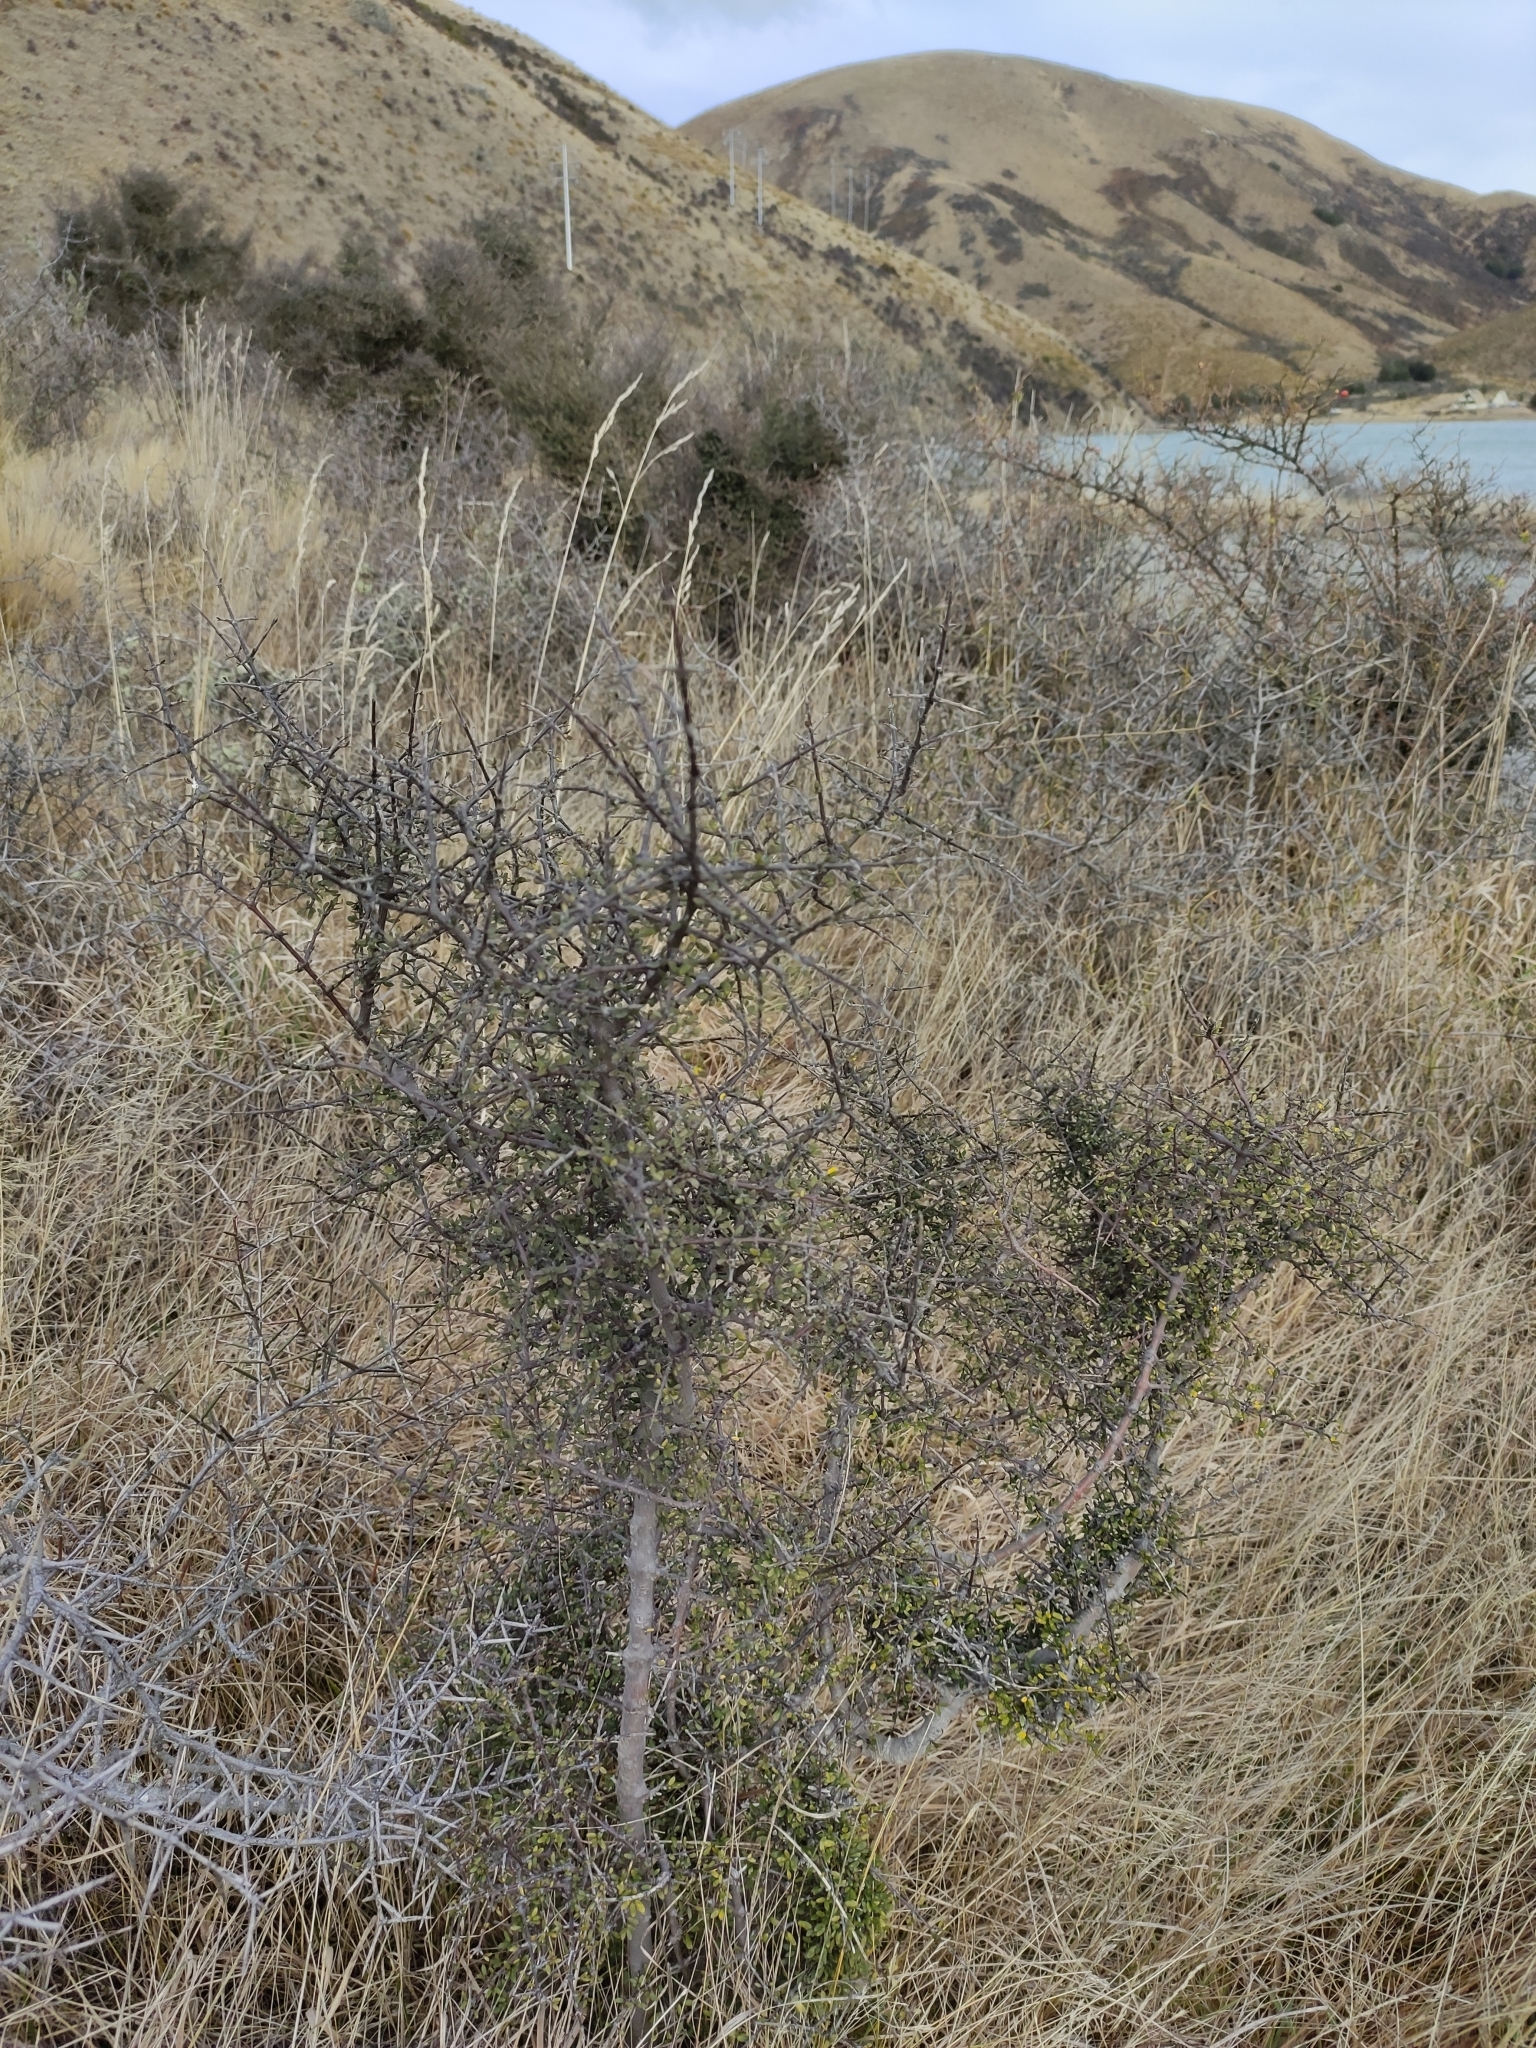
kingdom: Plantae
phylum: Tracheophyta
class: Magnoliopsida
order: Gentianales
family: Rubiaceae
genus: Coprosma
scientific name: Coprosma propinqua
